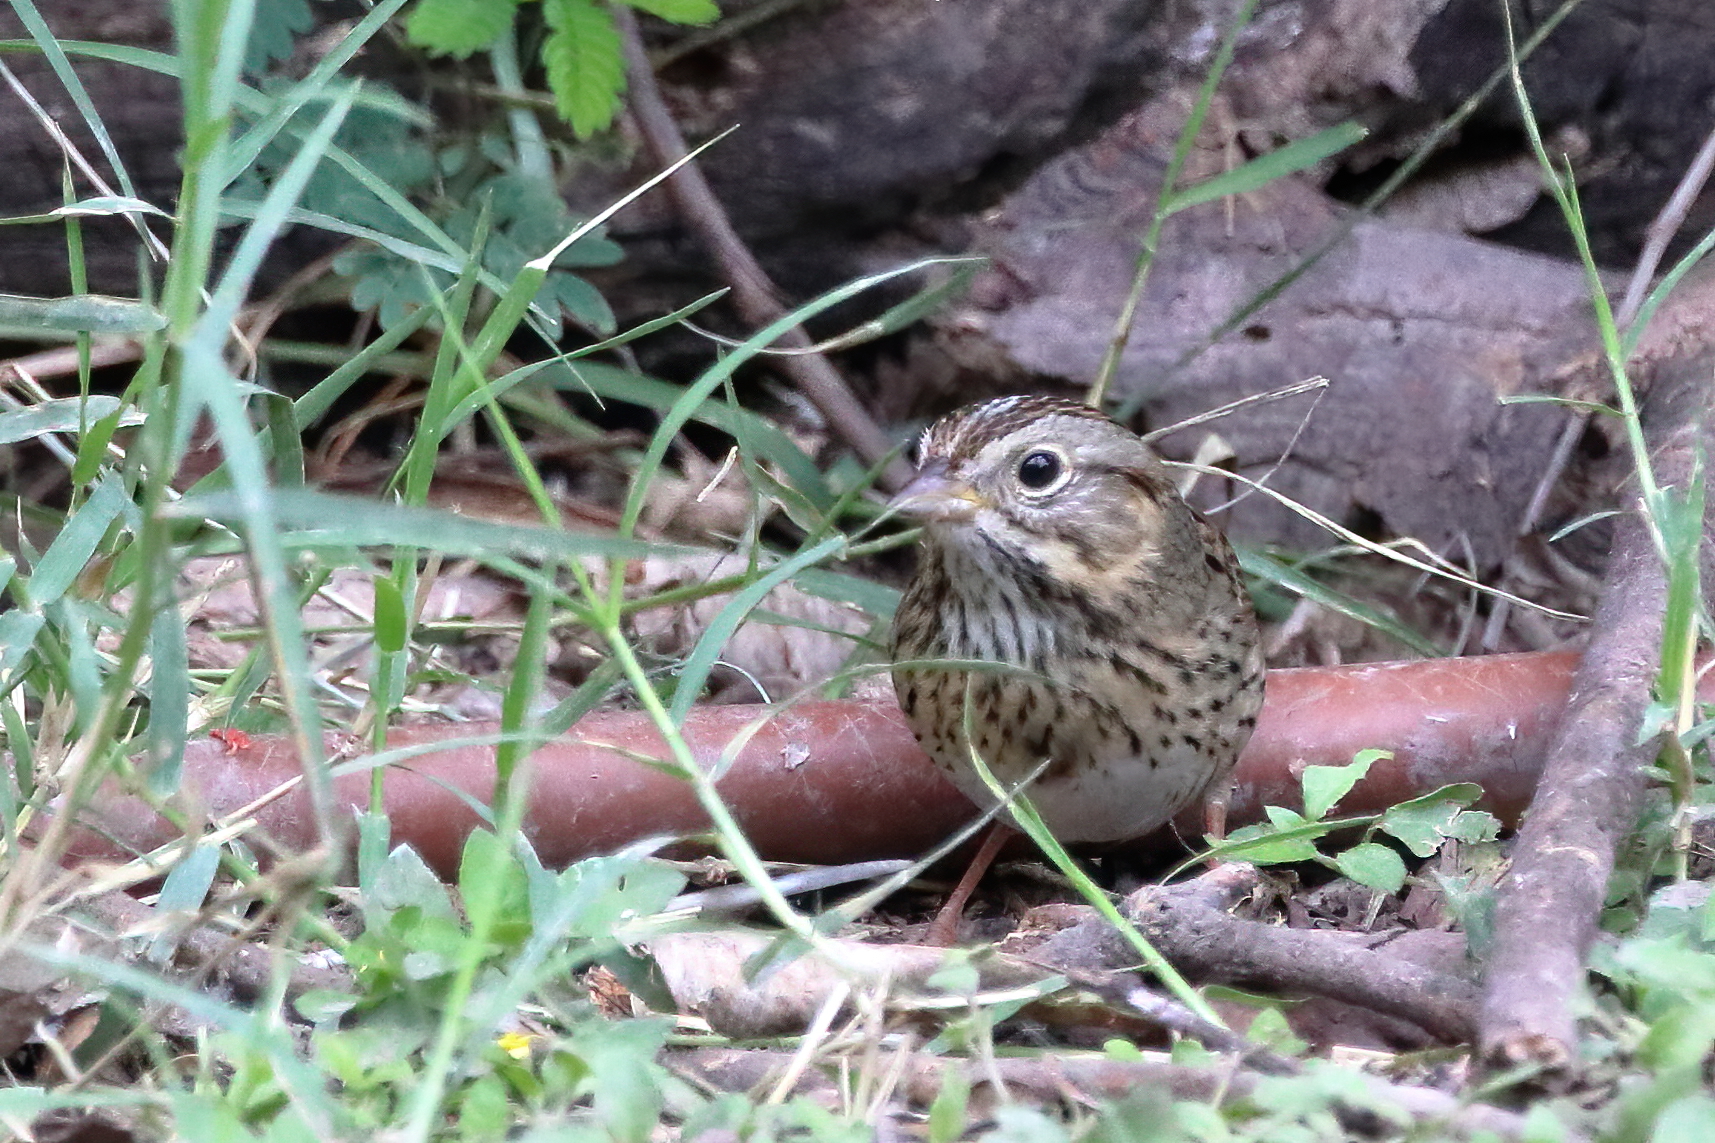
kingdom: Animalia
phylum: Chordata
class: Aves
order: Passeriformes
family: Passerellidae
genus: Melospiza
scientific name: Melospiza lincolnii
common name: Lincoln's sparrow
